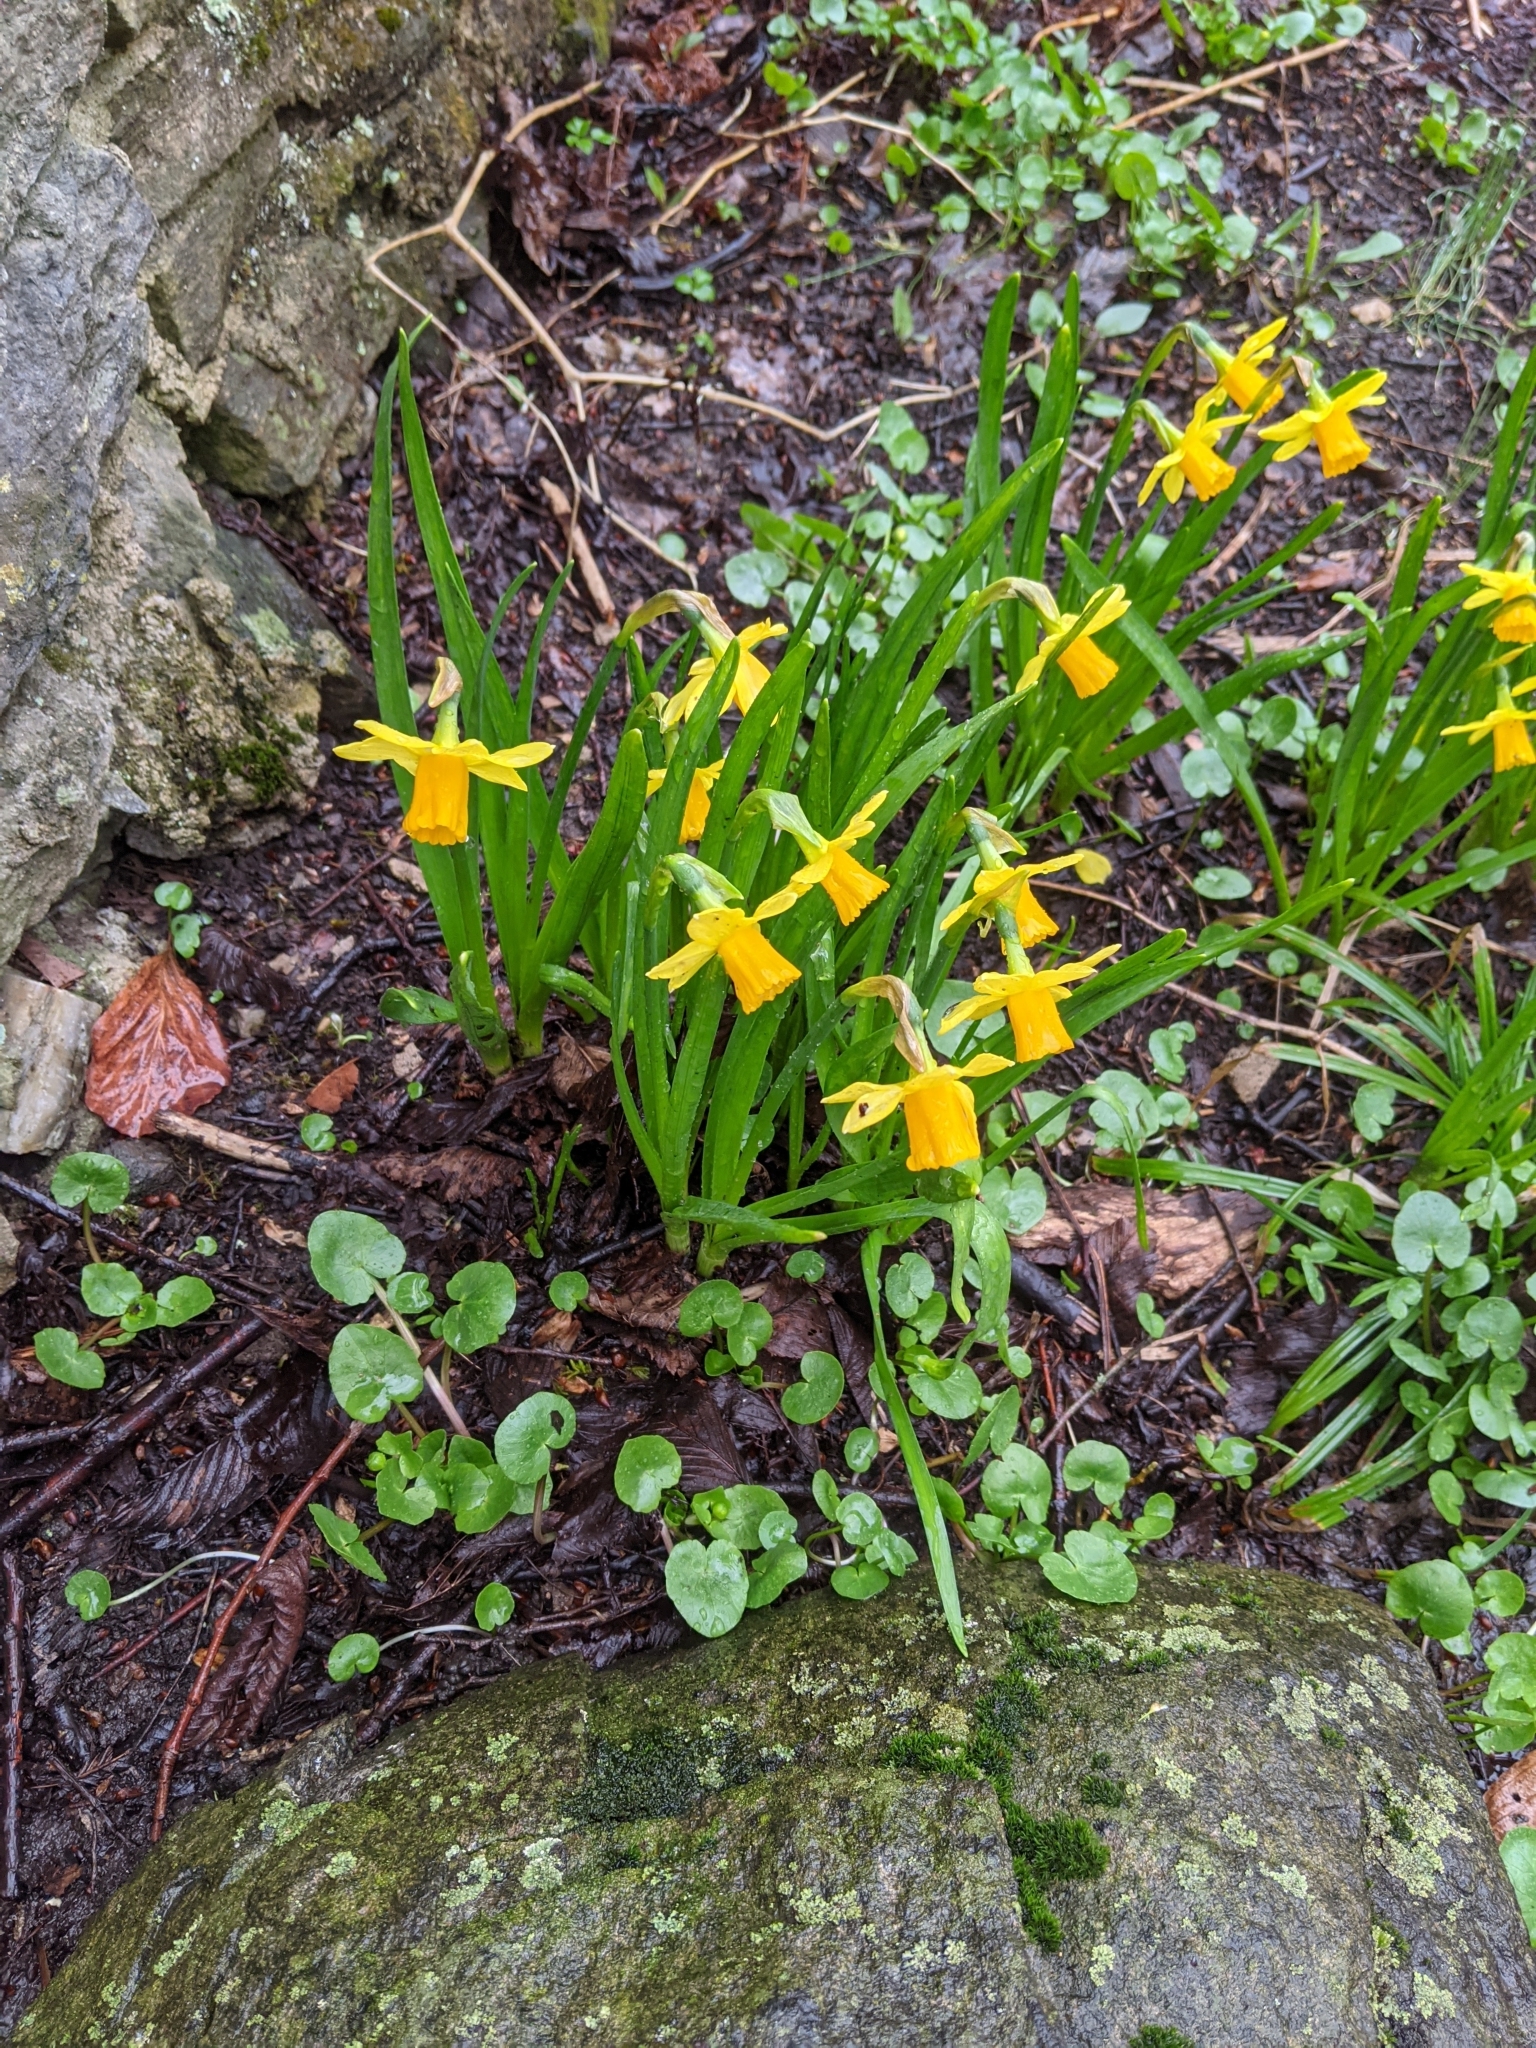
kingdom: Plantae
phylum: Tracheophyta
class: Liliopsida
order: Asparagales
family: Amaryllidaceae
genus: Narcissus
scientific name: Narcissus cyclazetta
